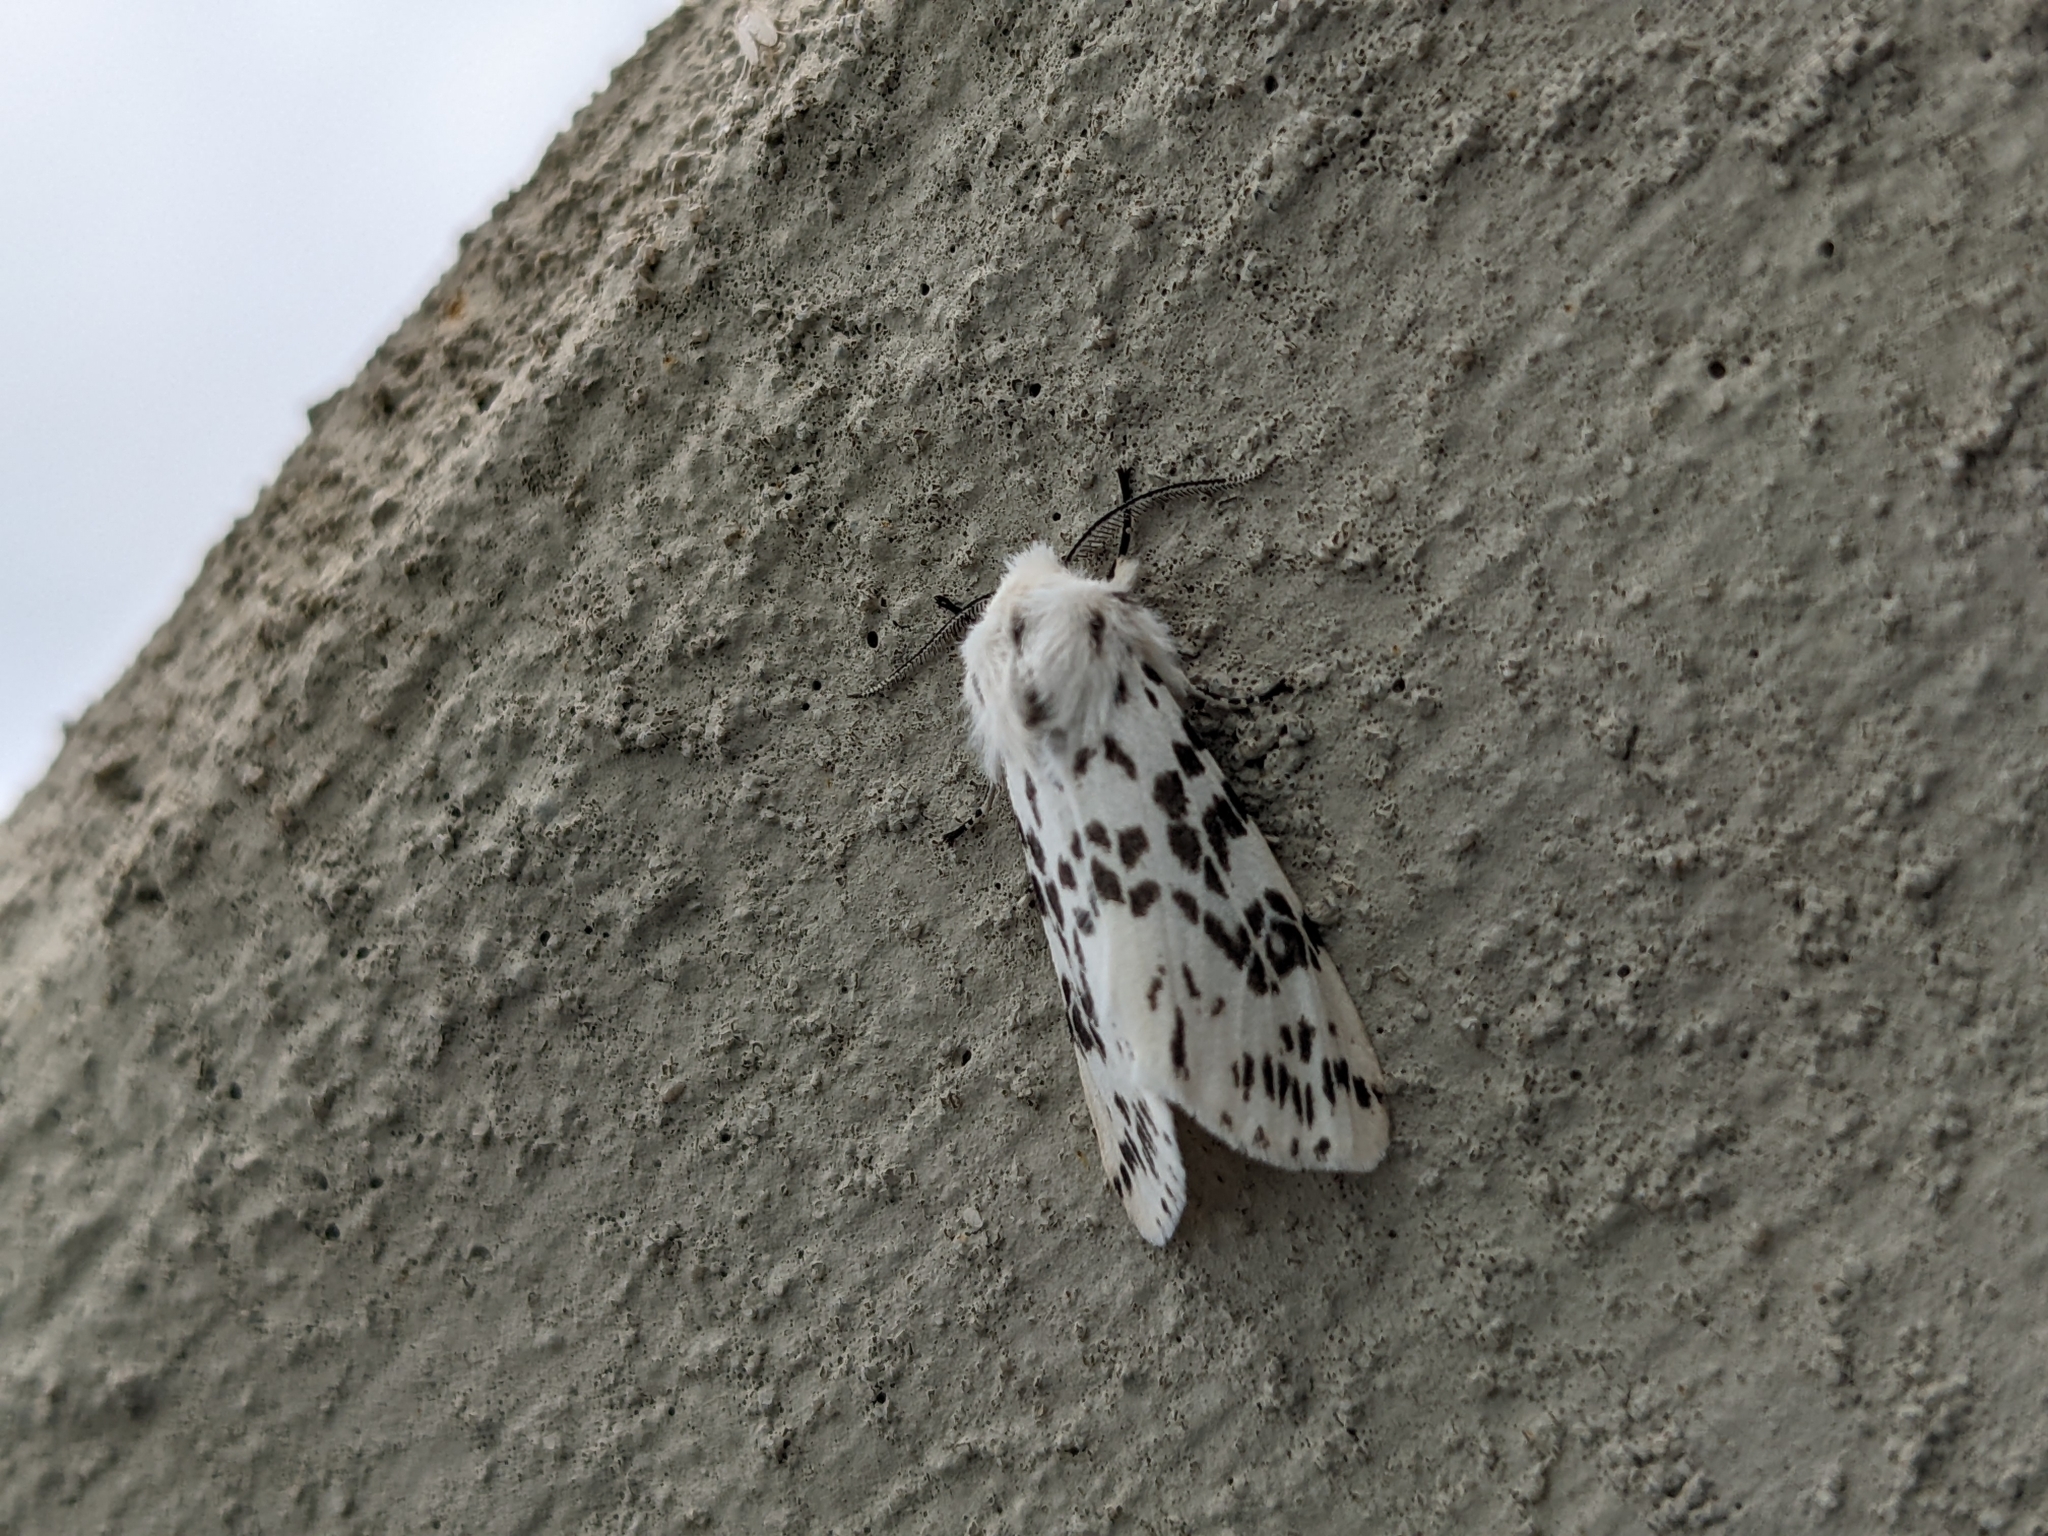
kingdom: Animalia
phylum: Arthropoda
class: Insecta
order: Lepidoptera
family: Erebidae
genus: Hyphantria
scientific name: Hyphantria cunea
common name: American white moth
